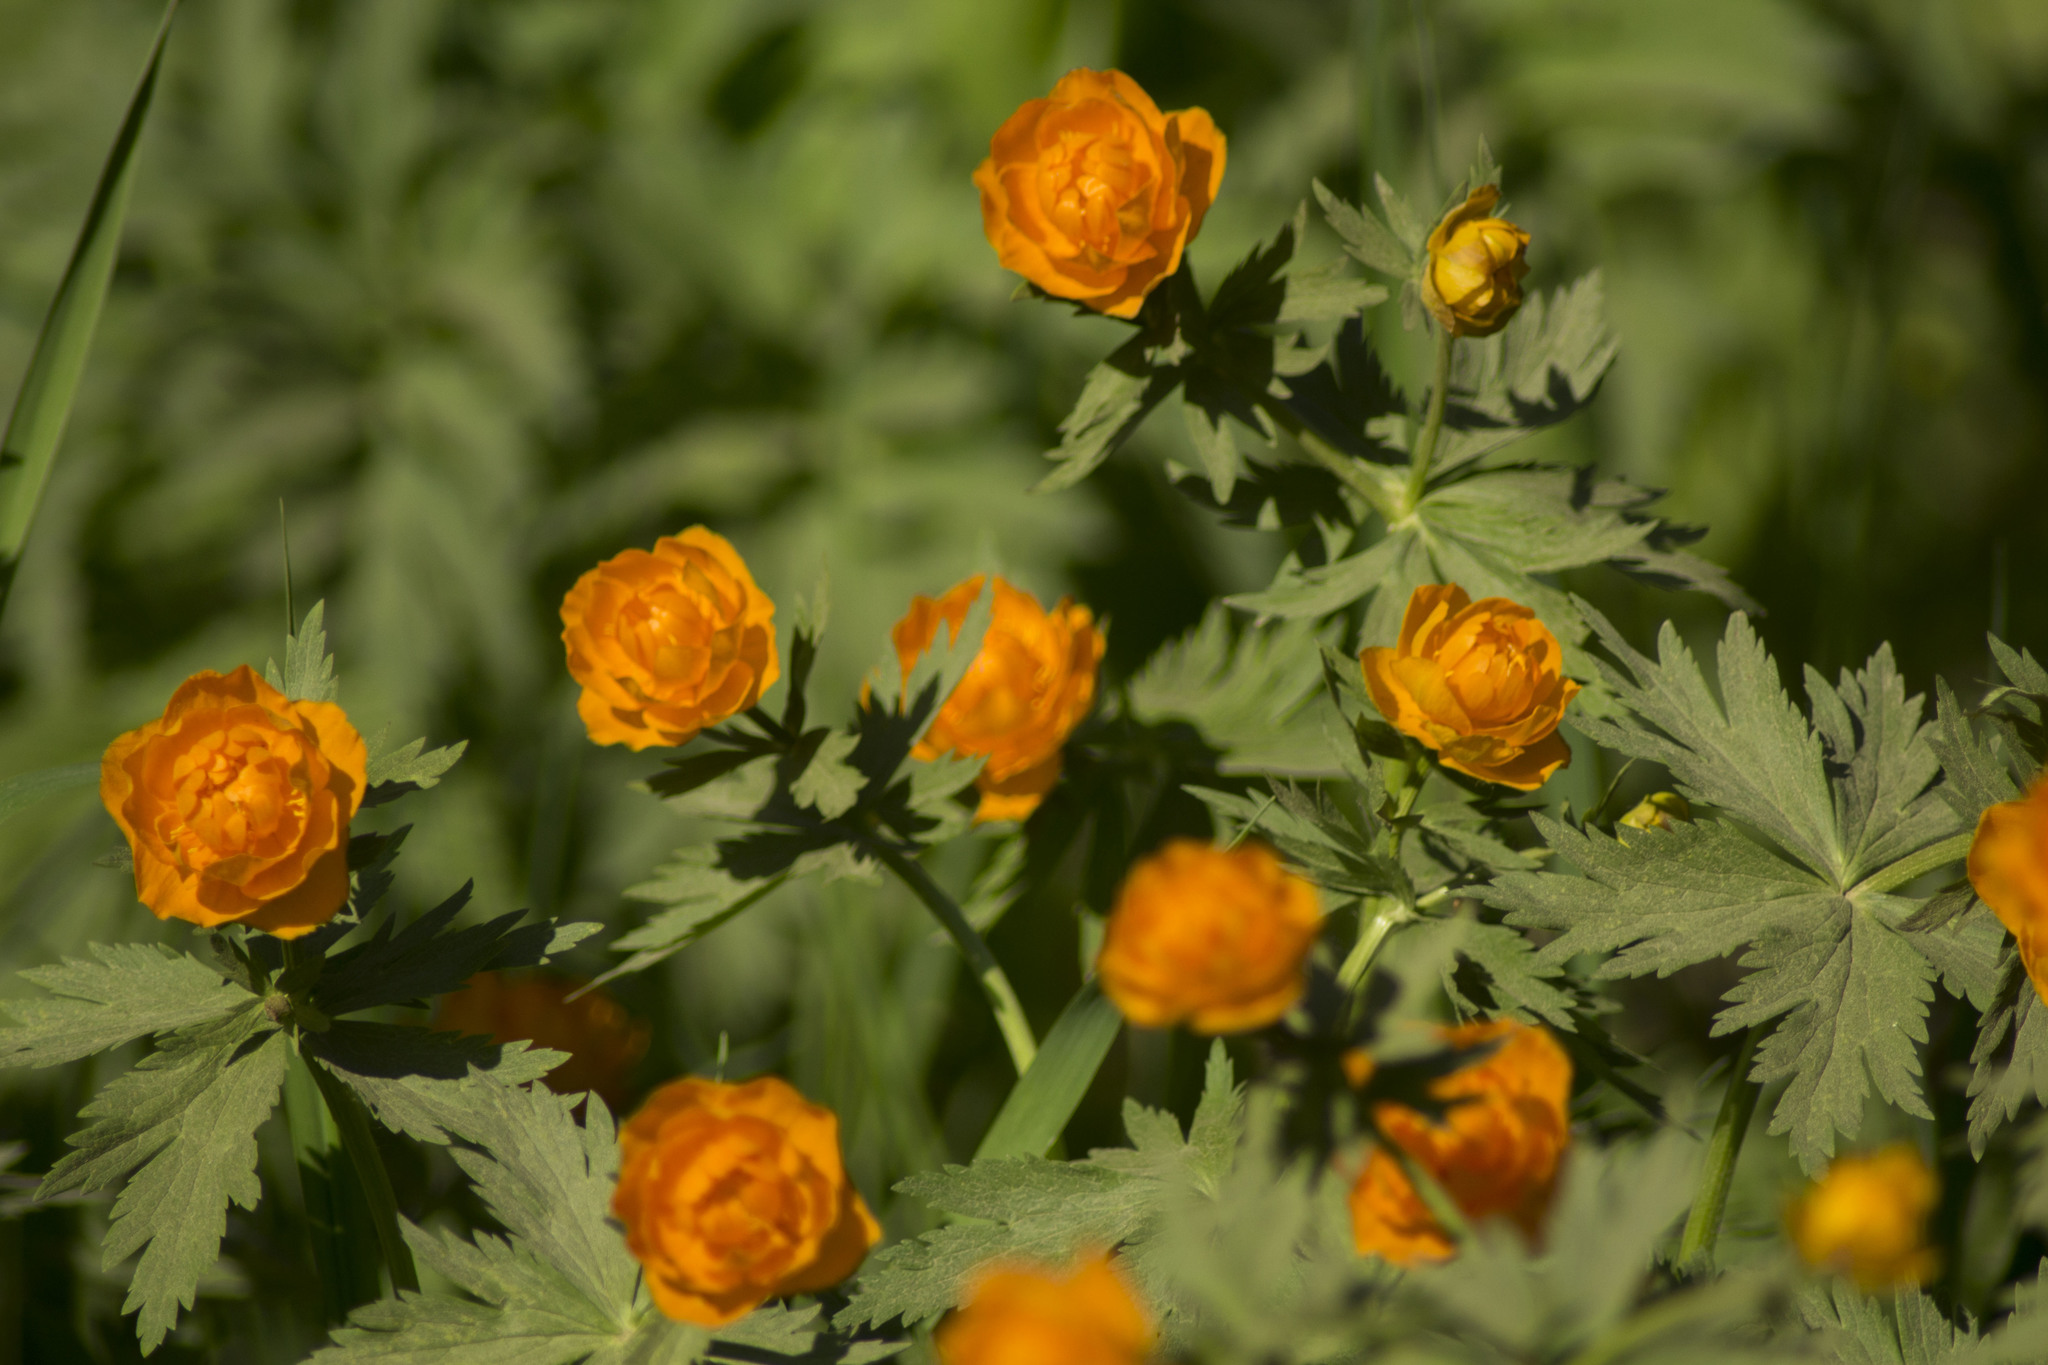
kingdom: Plantae
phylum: Tracheophyta
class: Magnoliopsida
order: Ranunculales
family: Ranunculaceae
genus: Trollius
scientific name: Trollius asiaticus
